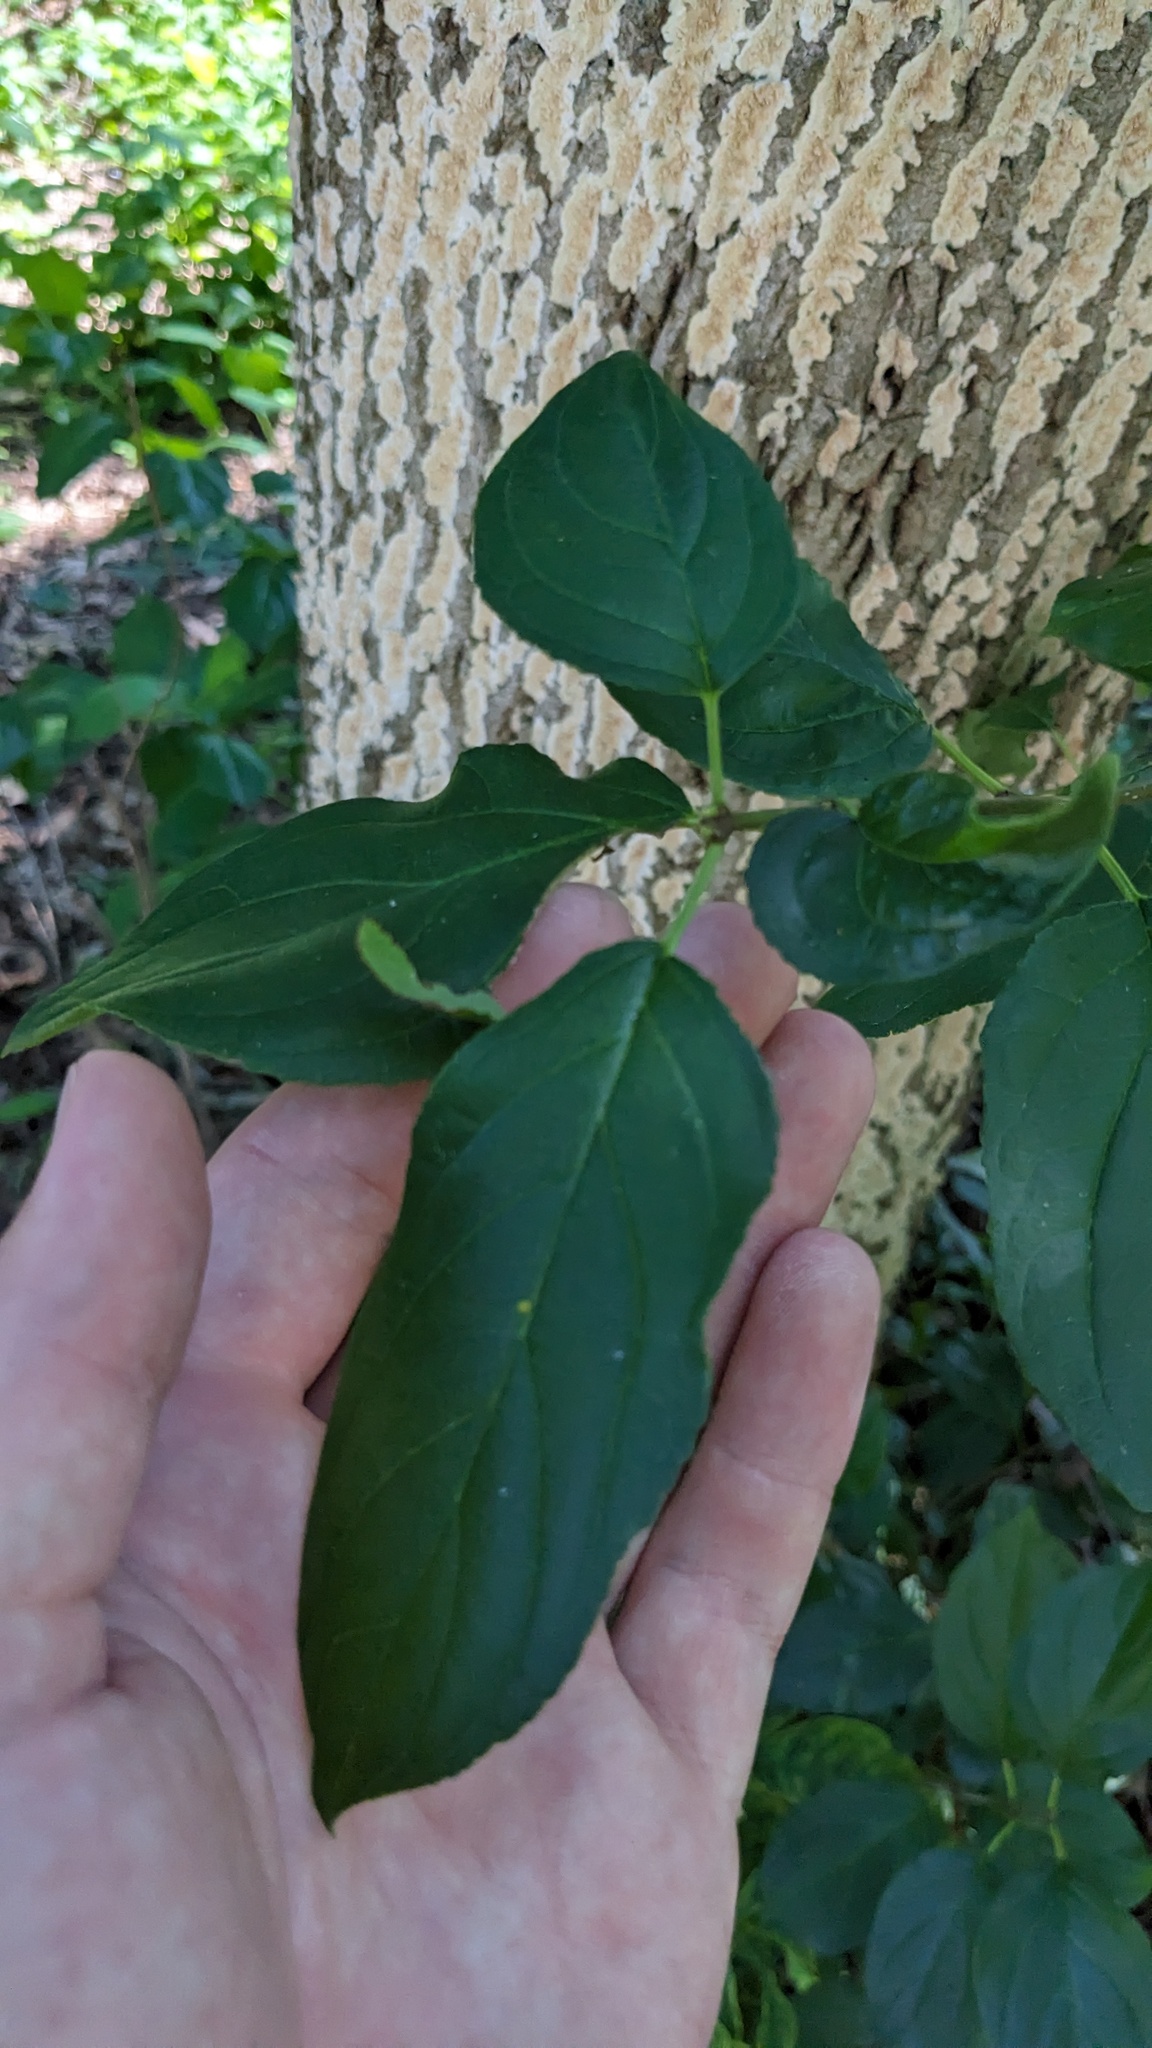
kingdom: Plantae
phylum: Tracheophyta
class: Magnoliopsida
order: Rosales
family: Rhamnaceae
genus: Rhamnus
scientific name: Rhamnus cathartica
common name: Common buckthorn
